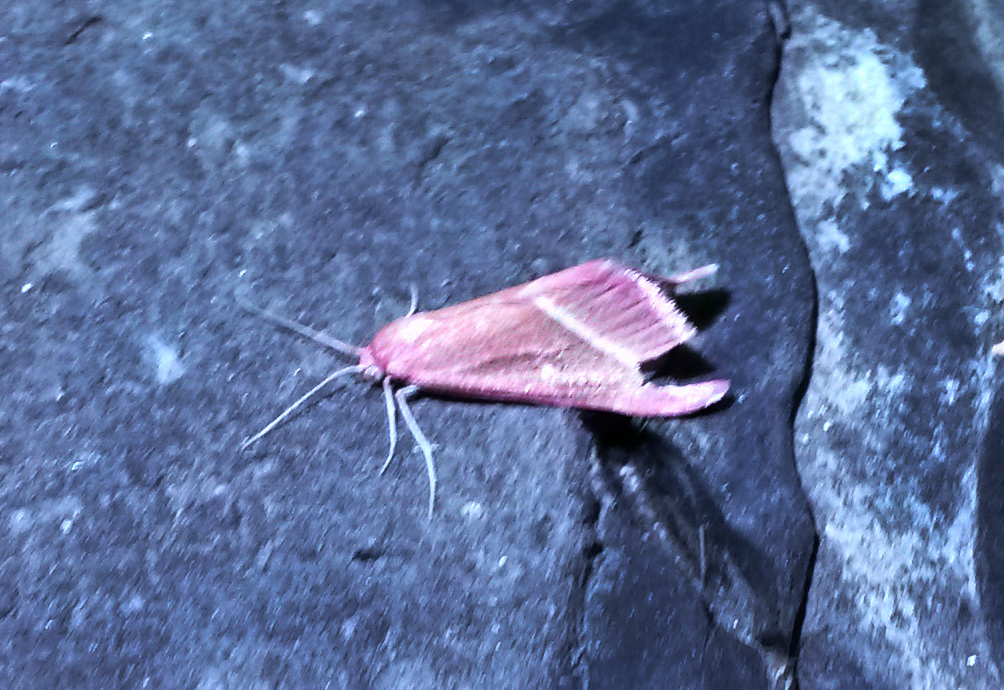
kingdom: Animalia
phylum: Arthropoda
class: Insecta
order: Lepidoptera
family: Geometridae
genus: Casilda
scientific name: Casilda antophilaria
